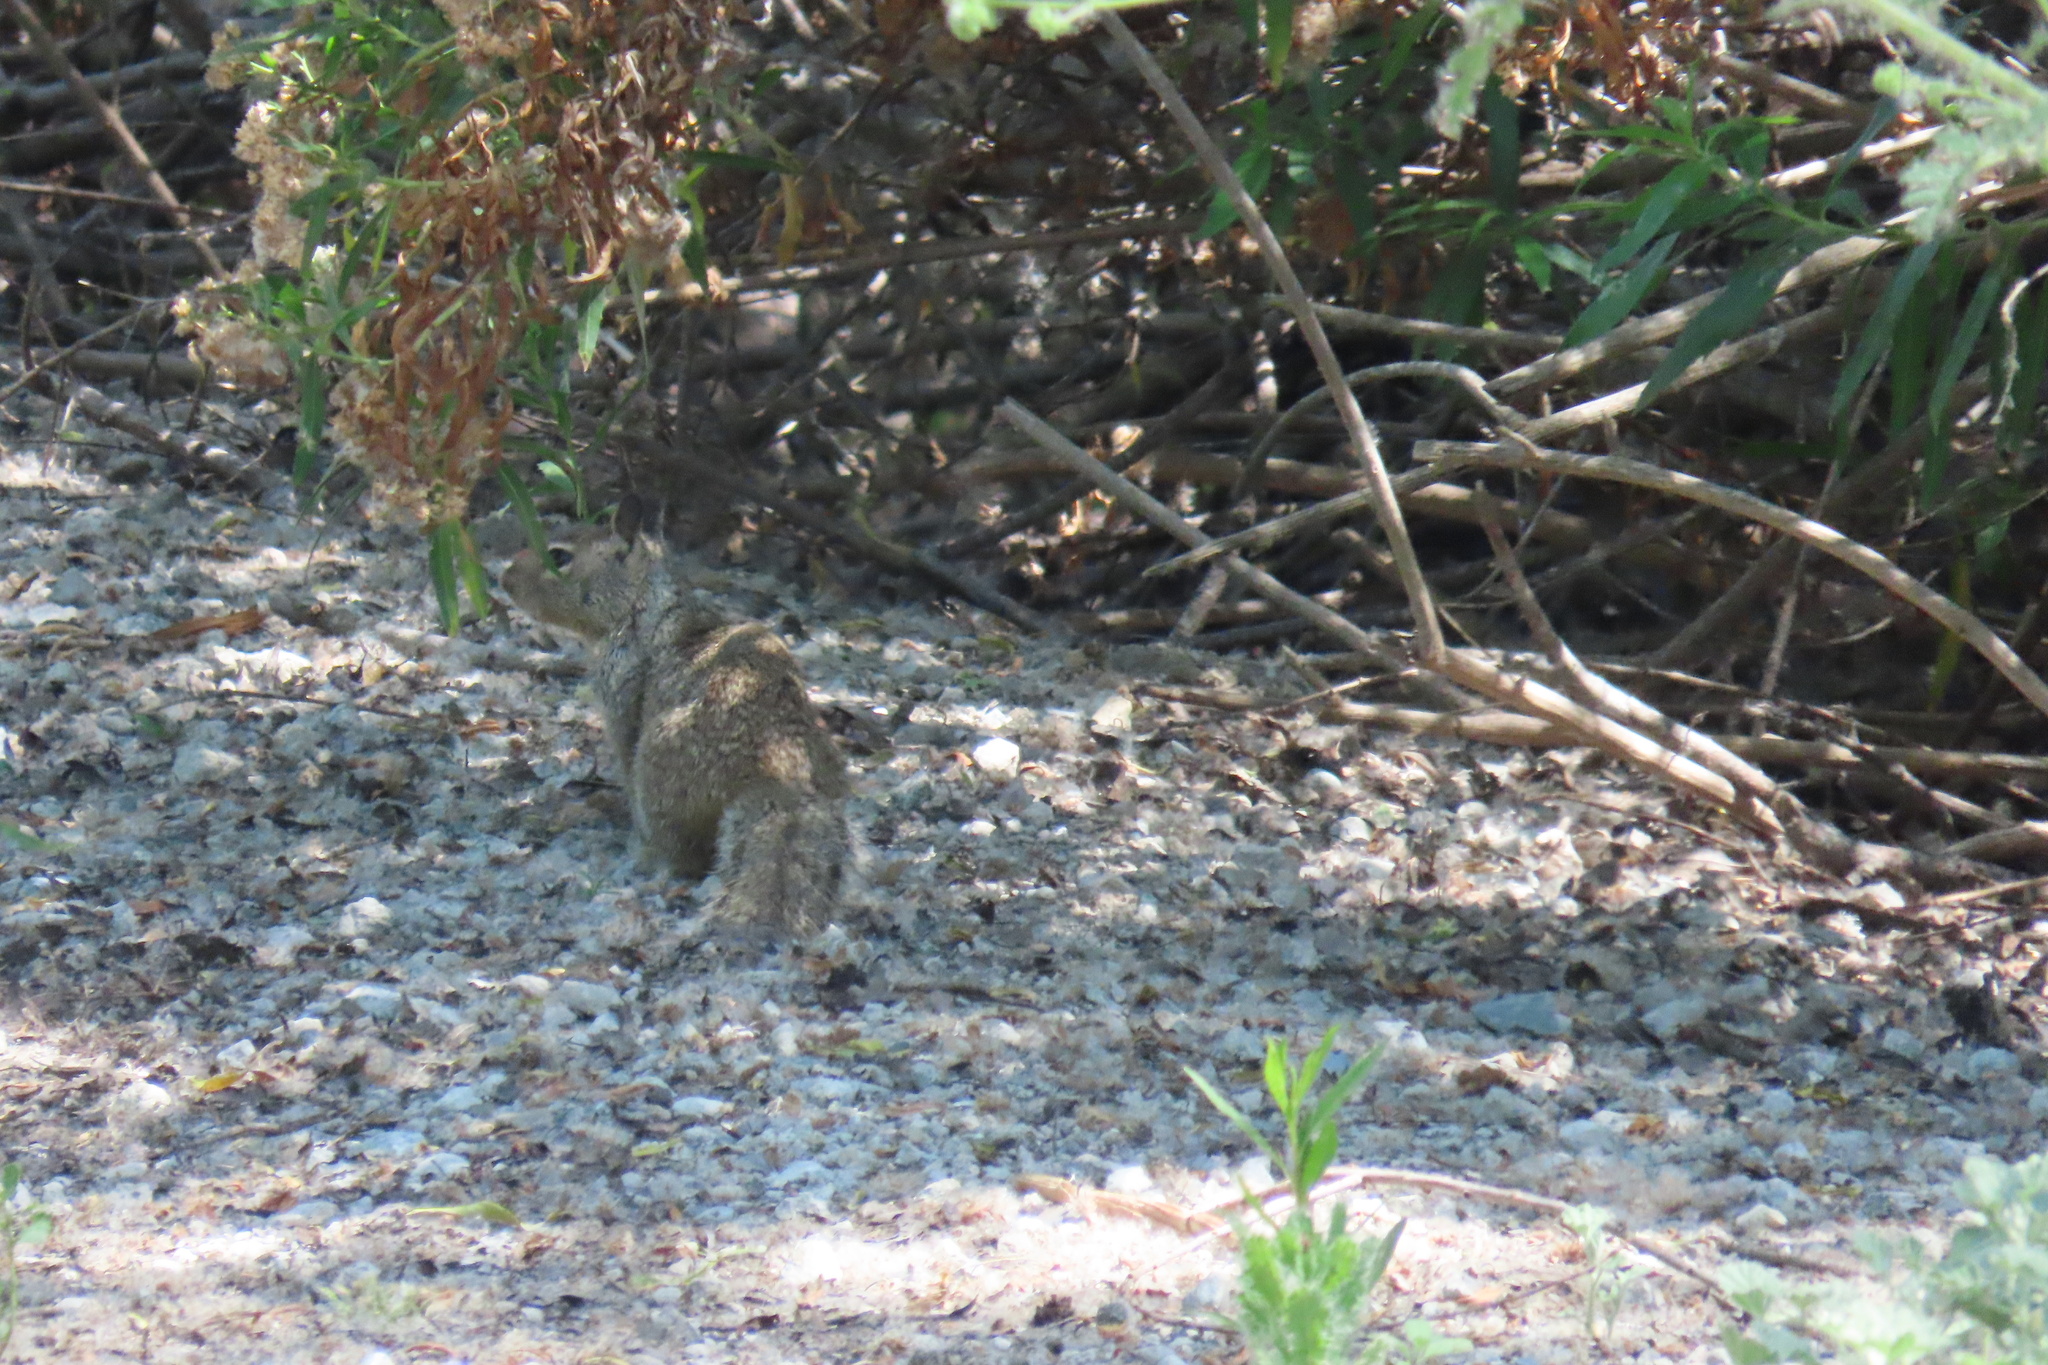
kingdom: Animalia
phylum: Chordata
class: Mammalia
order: Rodentia
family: Sciuridae
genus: Otospermophilus
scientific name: Otospermophilus beecheyi
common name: California ground squirrel
